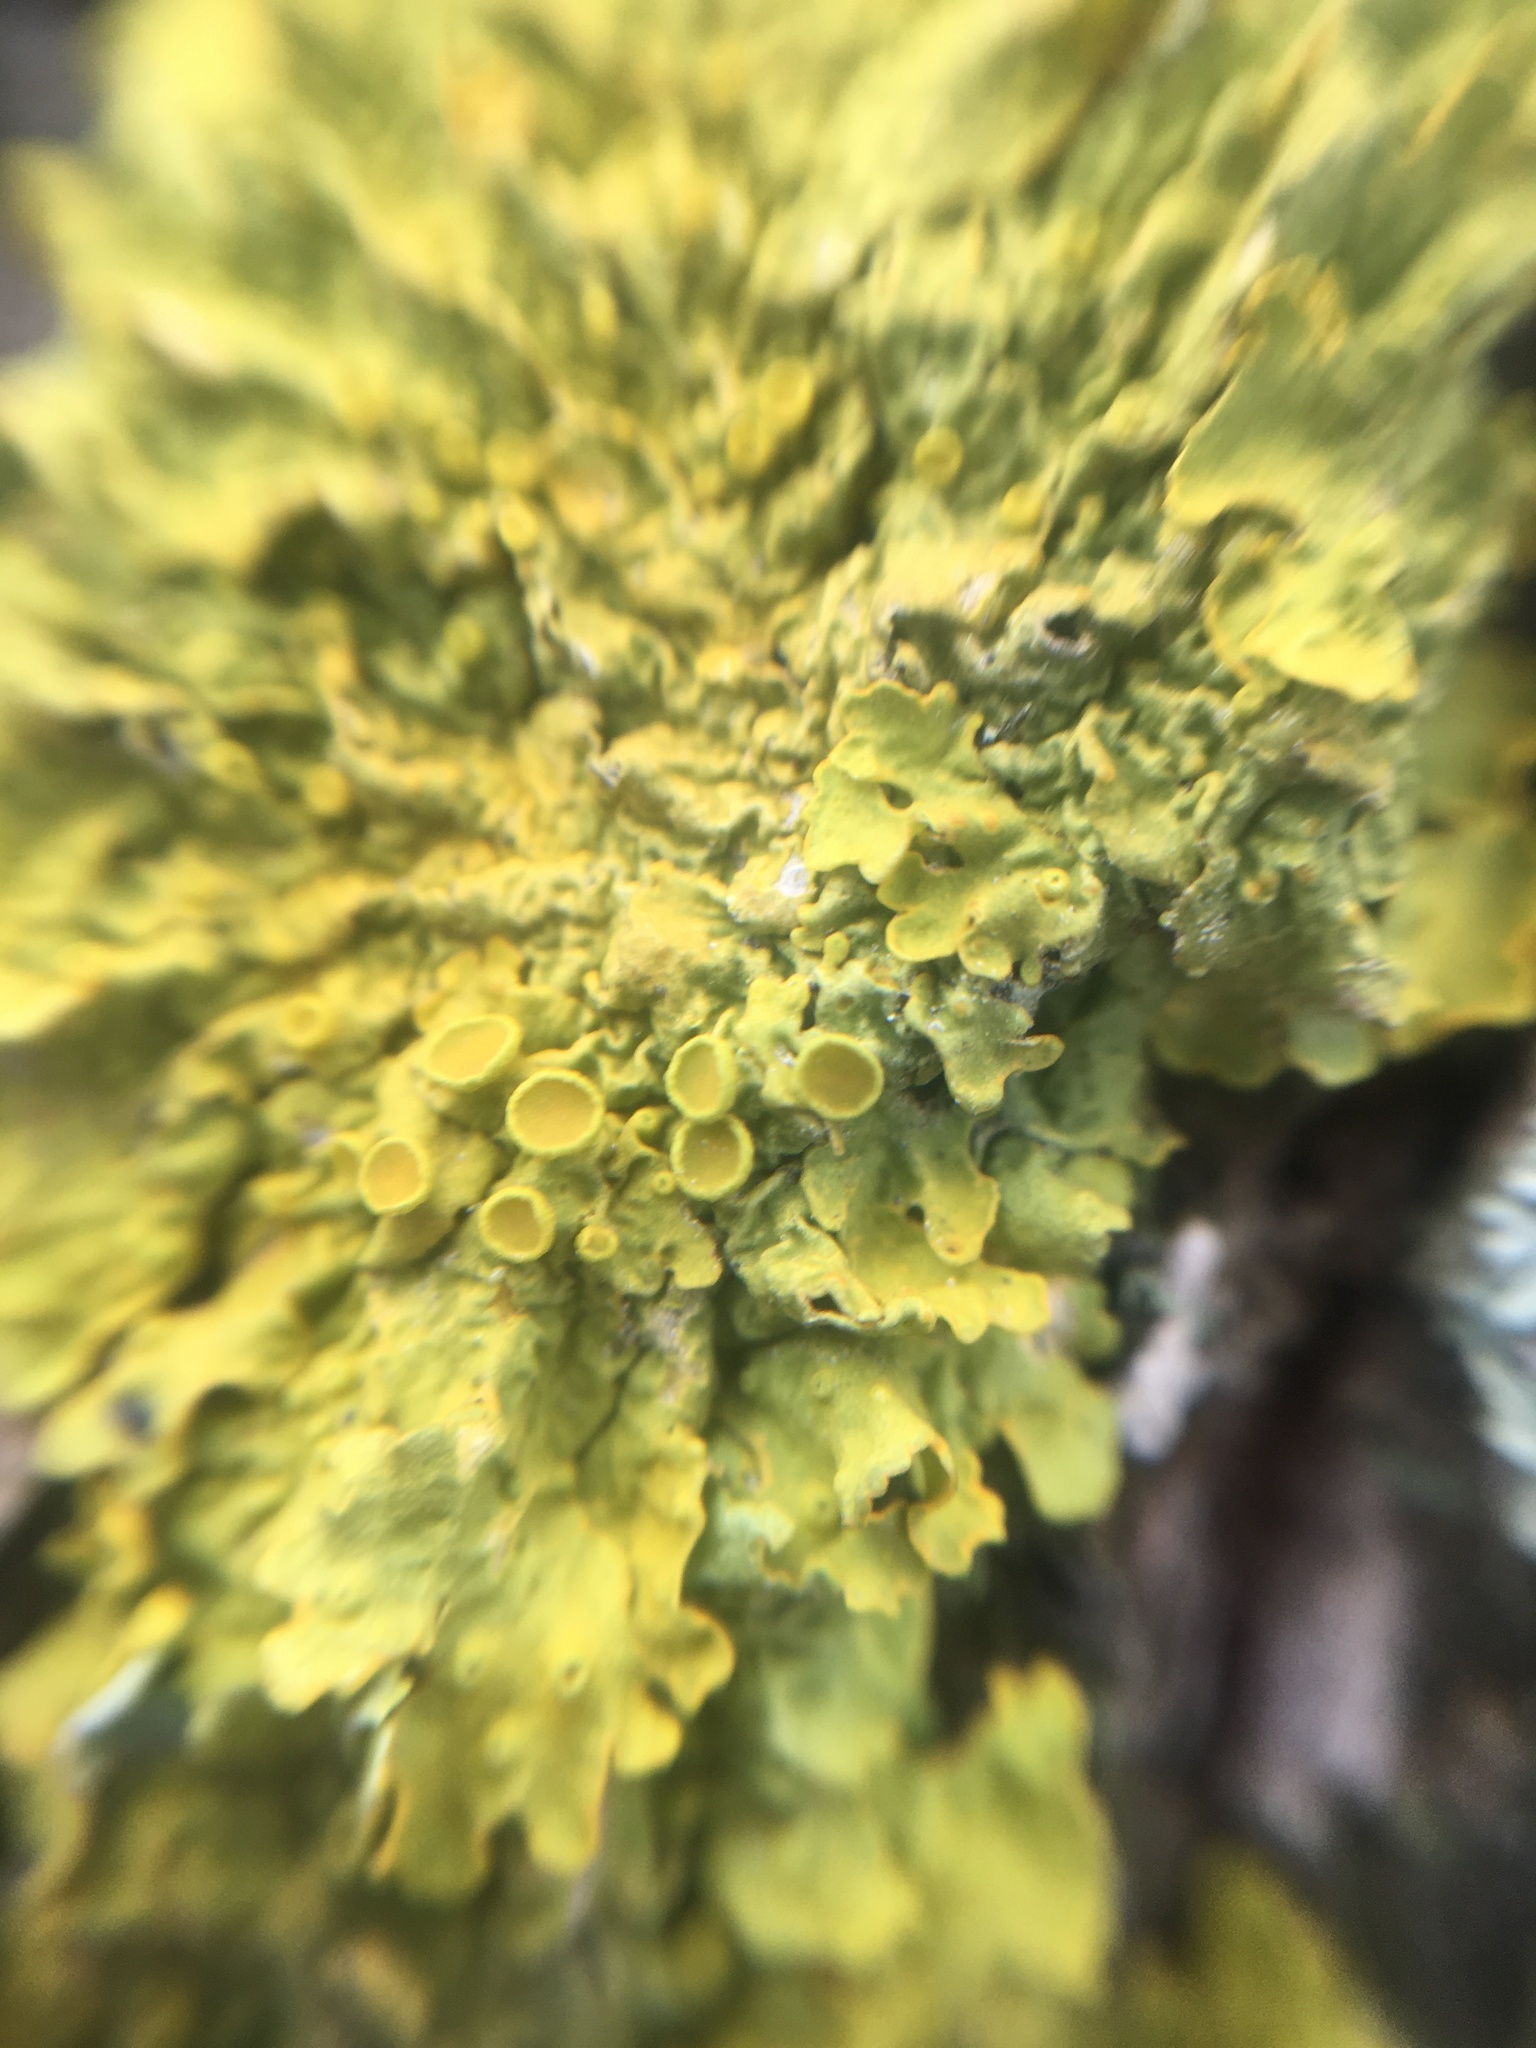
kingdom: Fungi
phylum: Ascomycota
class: Lecanoromycetes
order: Teloschistales
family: Teloschistaceae
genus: Xanthoria
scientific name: Xanthoria parietina
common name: Common orange lichen
